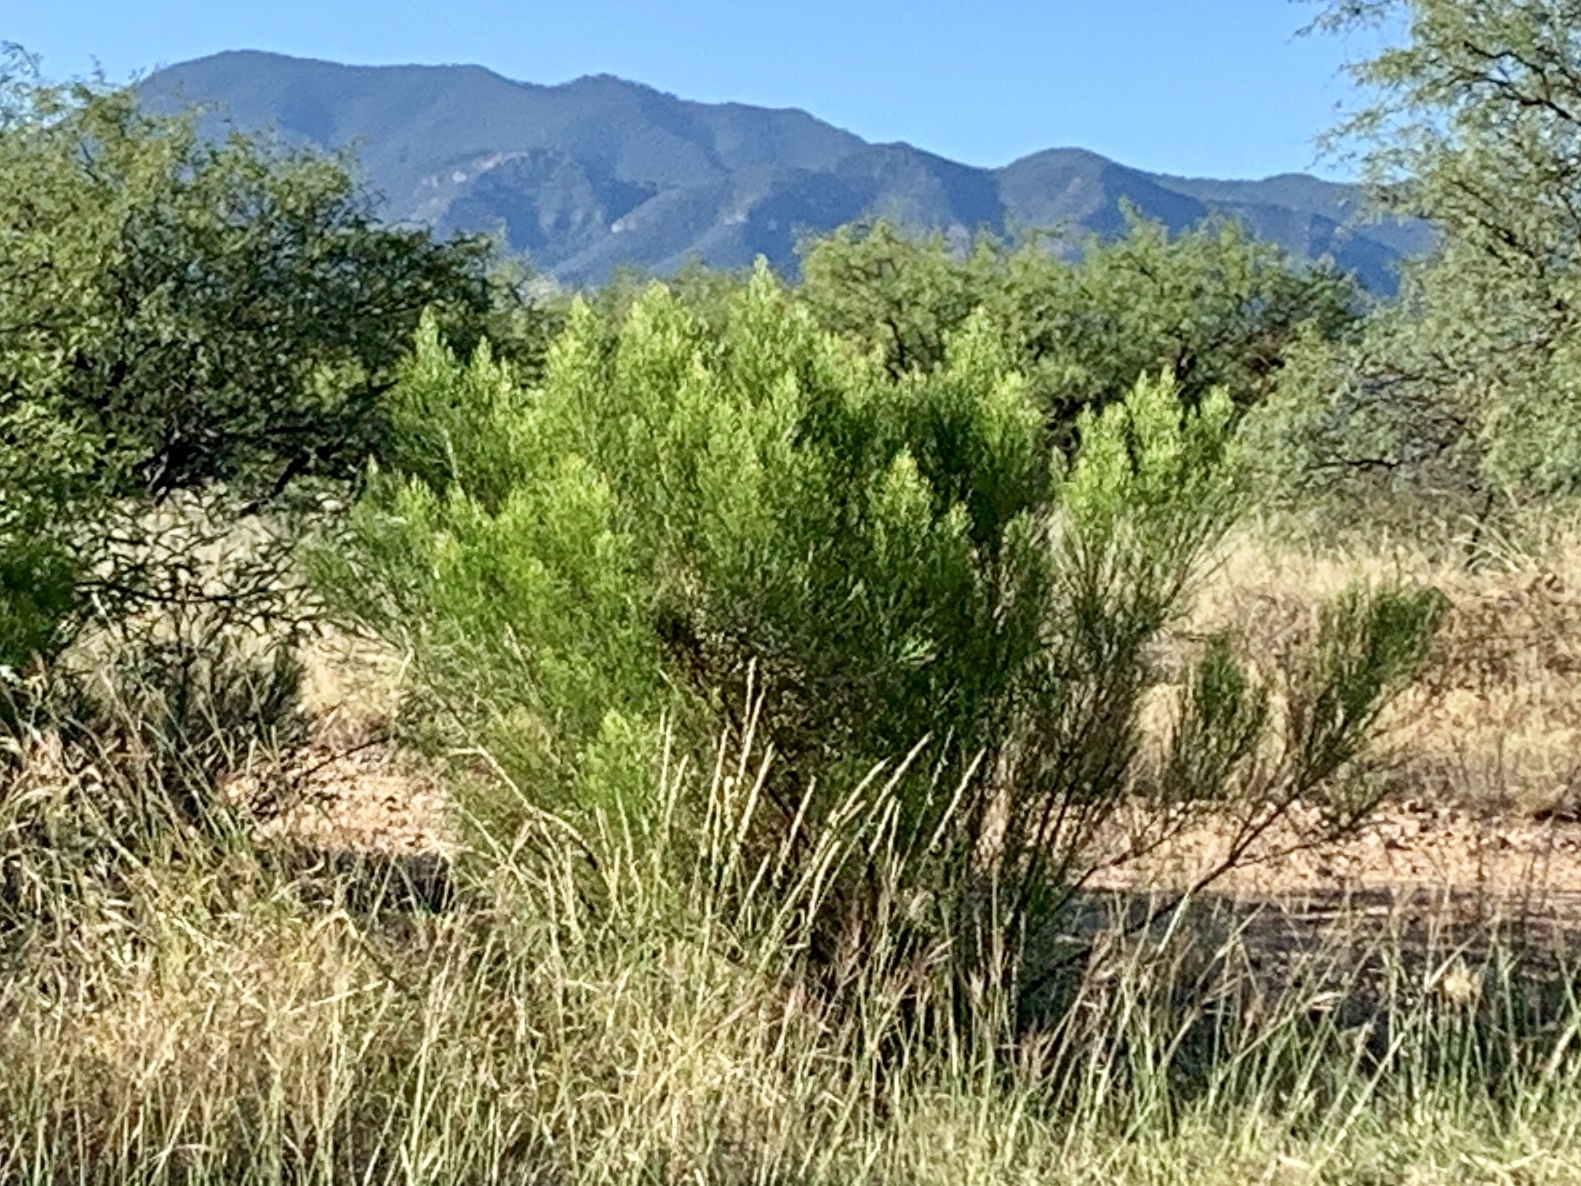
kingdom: Plantae
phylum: Tracheophyta
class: Magnoliopsida
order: Asterales
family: Asteraceae
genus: Baccharis
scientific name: Baccharis sarothroides
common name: Desert-broom
